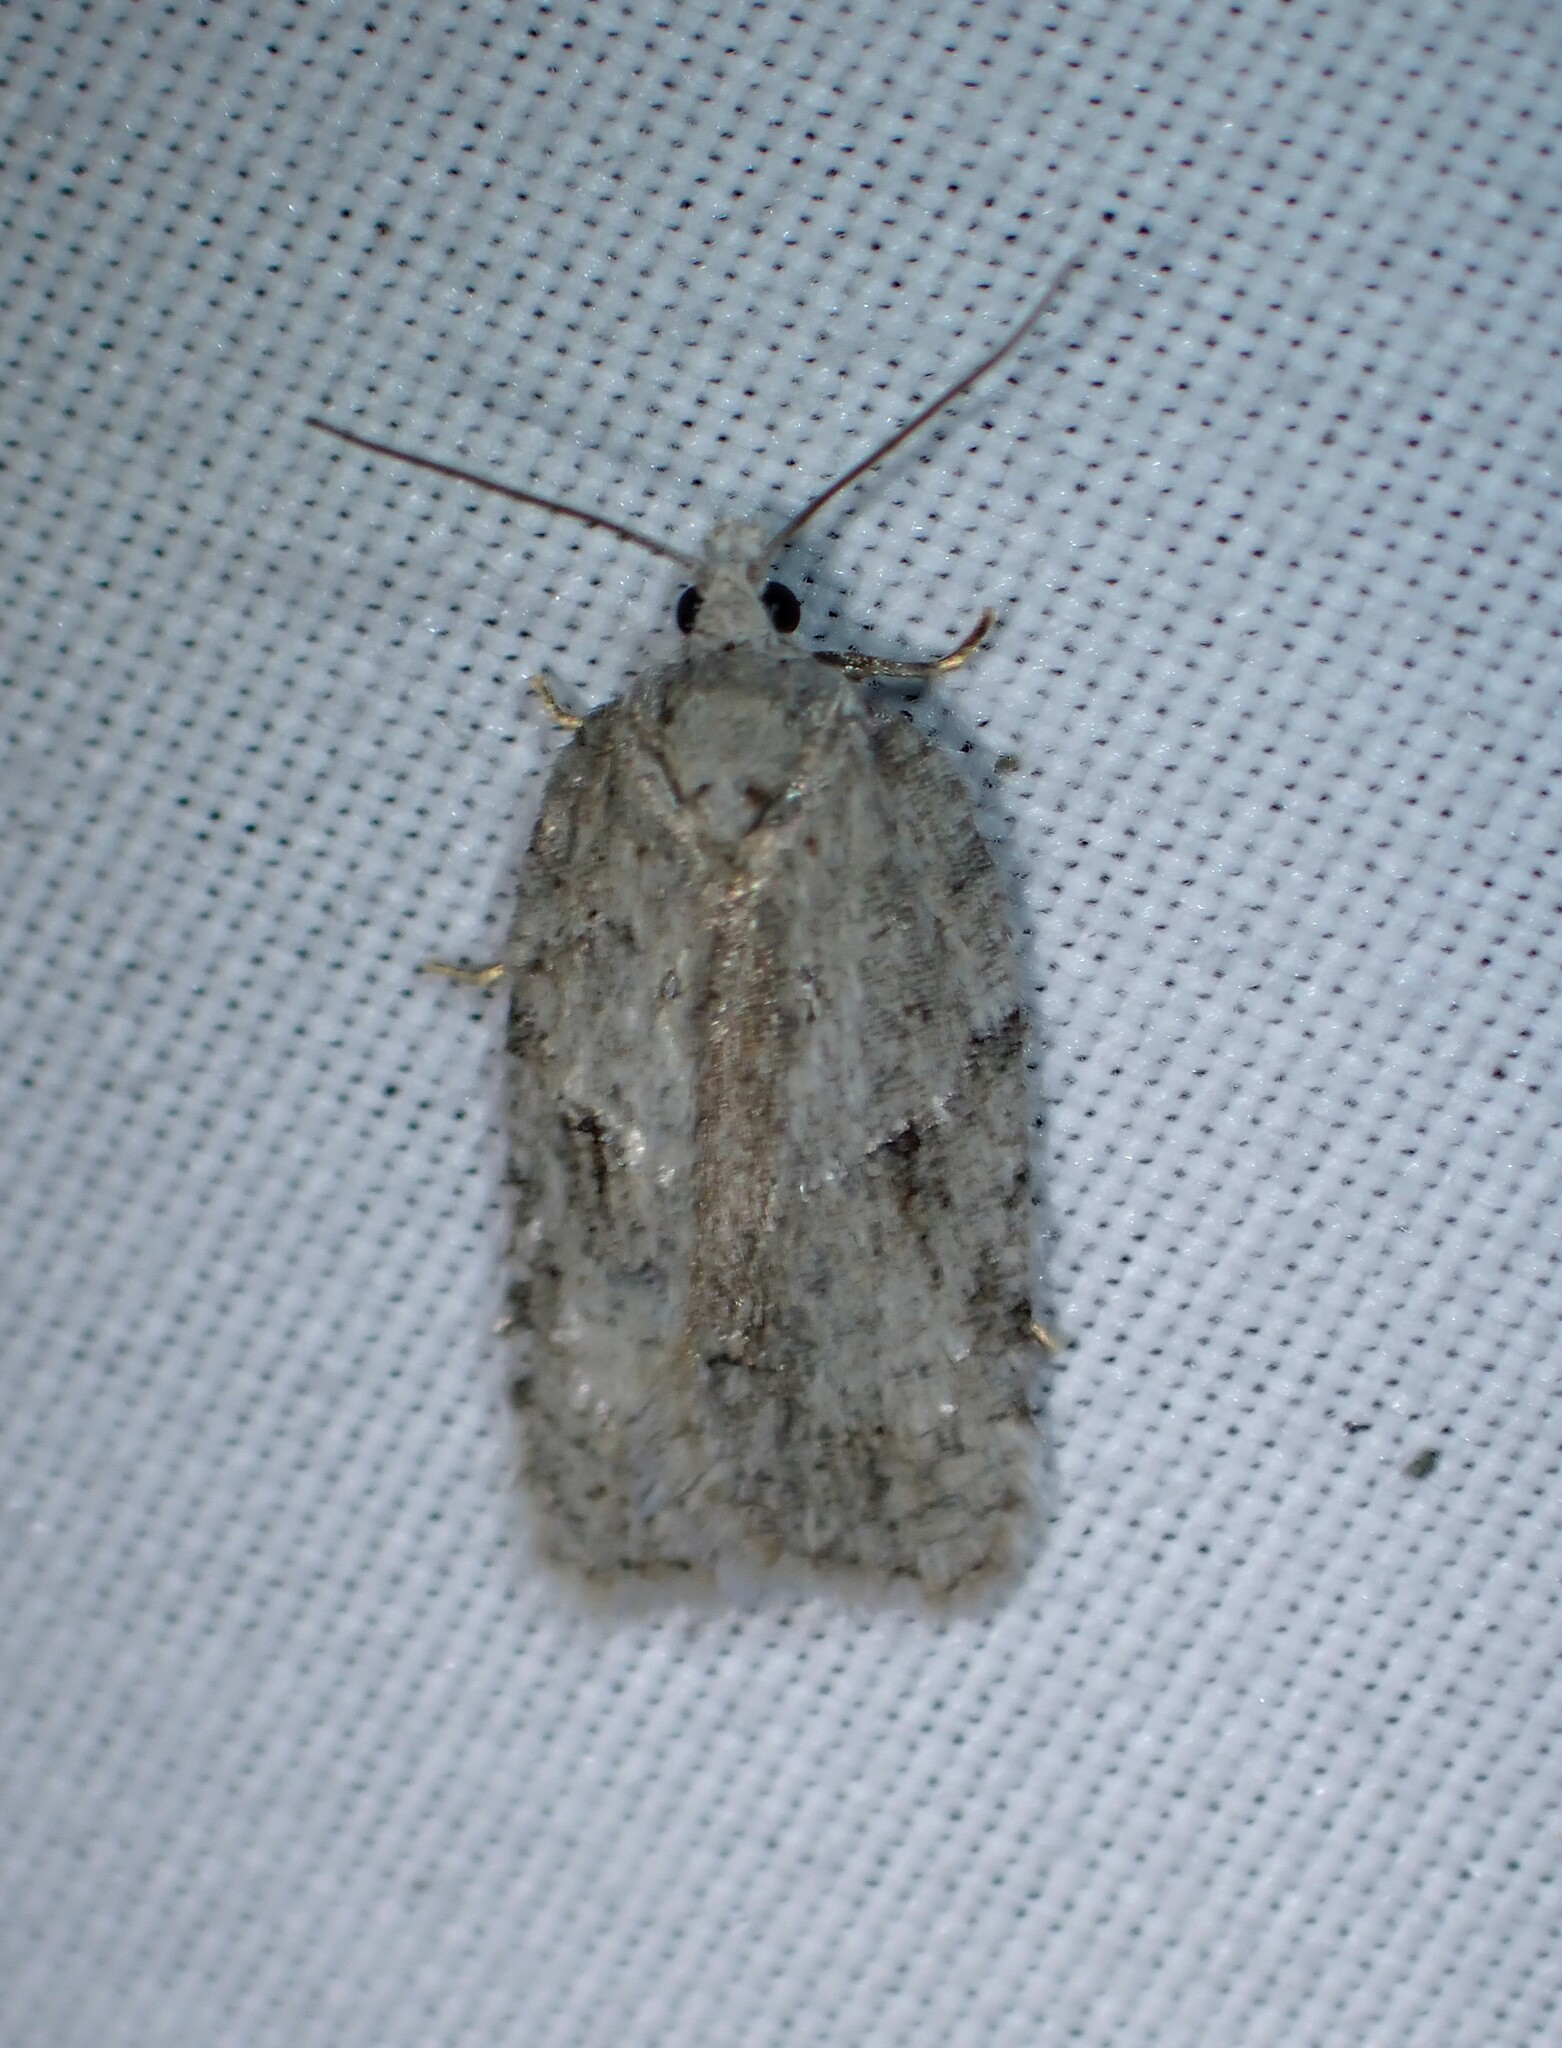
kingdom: Animalia
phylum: Arthropoda
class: Insecta
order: Lepidoptera
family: Tortricidae
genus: Acleris
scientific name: Acleris placidana
